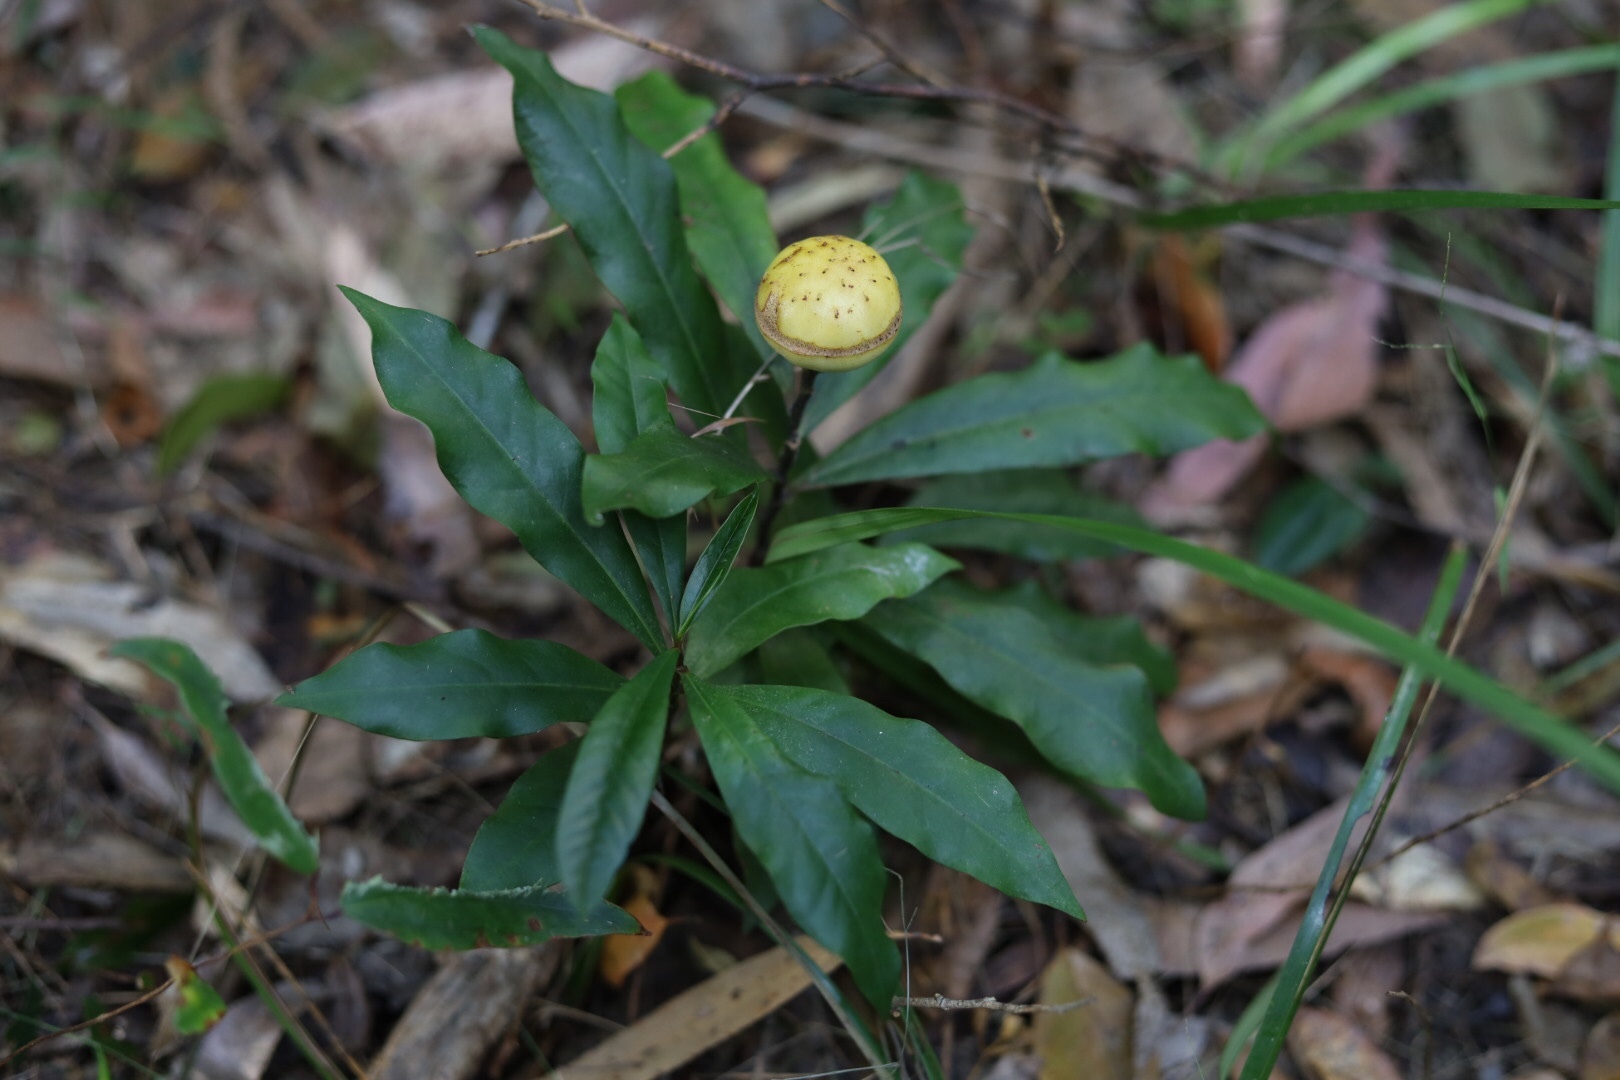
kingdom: Plantae
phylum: Tracheophyta
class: Magnoliopsida
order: Magnoliales
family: Eupomatiaceae
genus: Eupomatia
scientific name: Eupomatia bennettii
